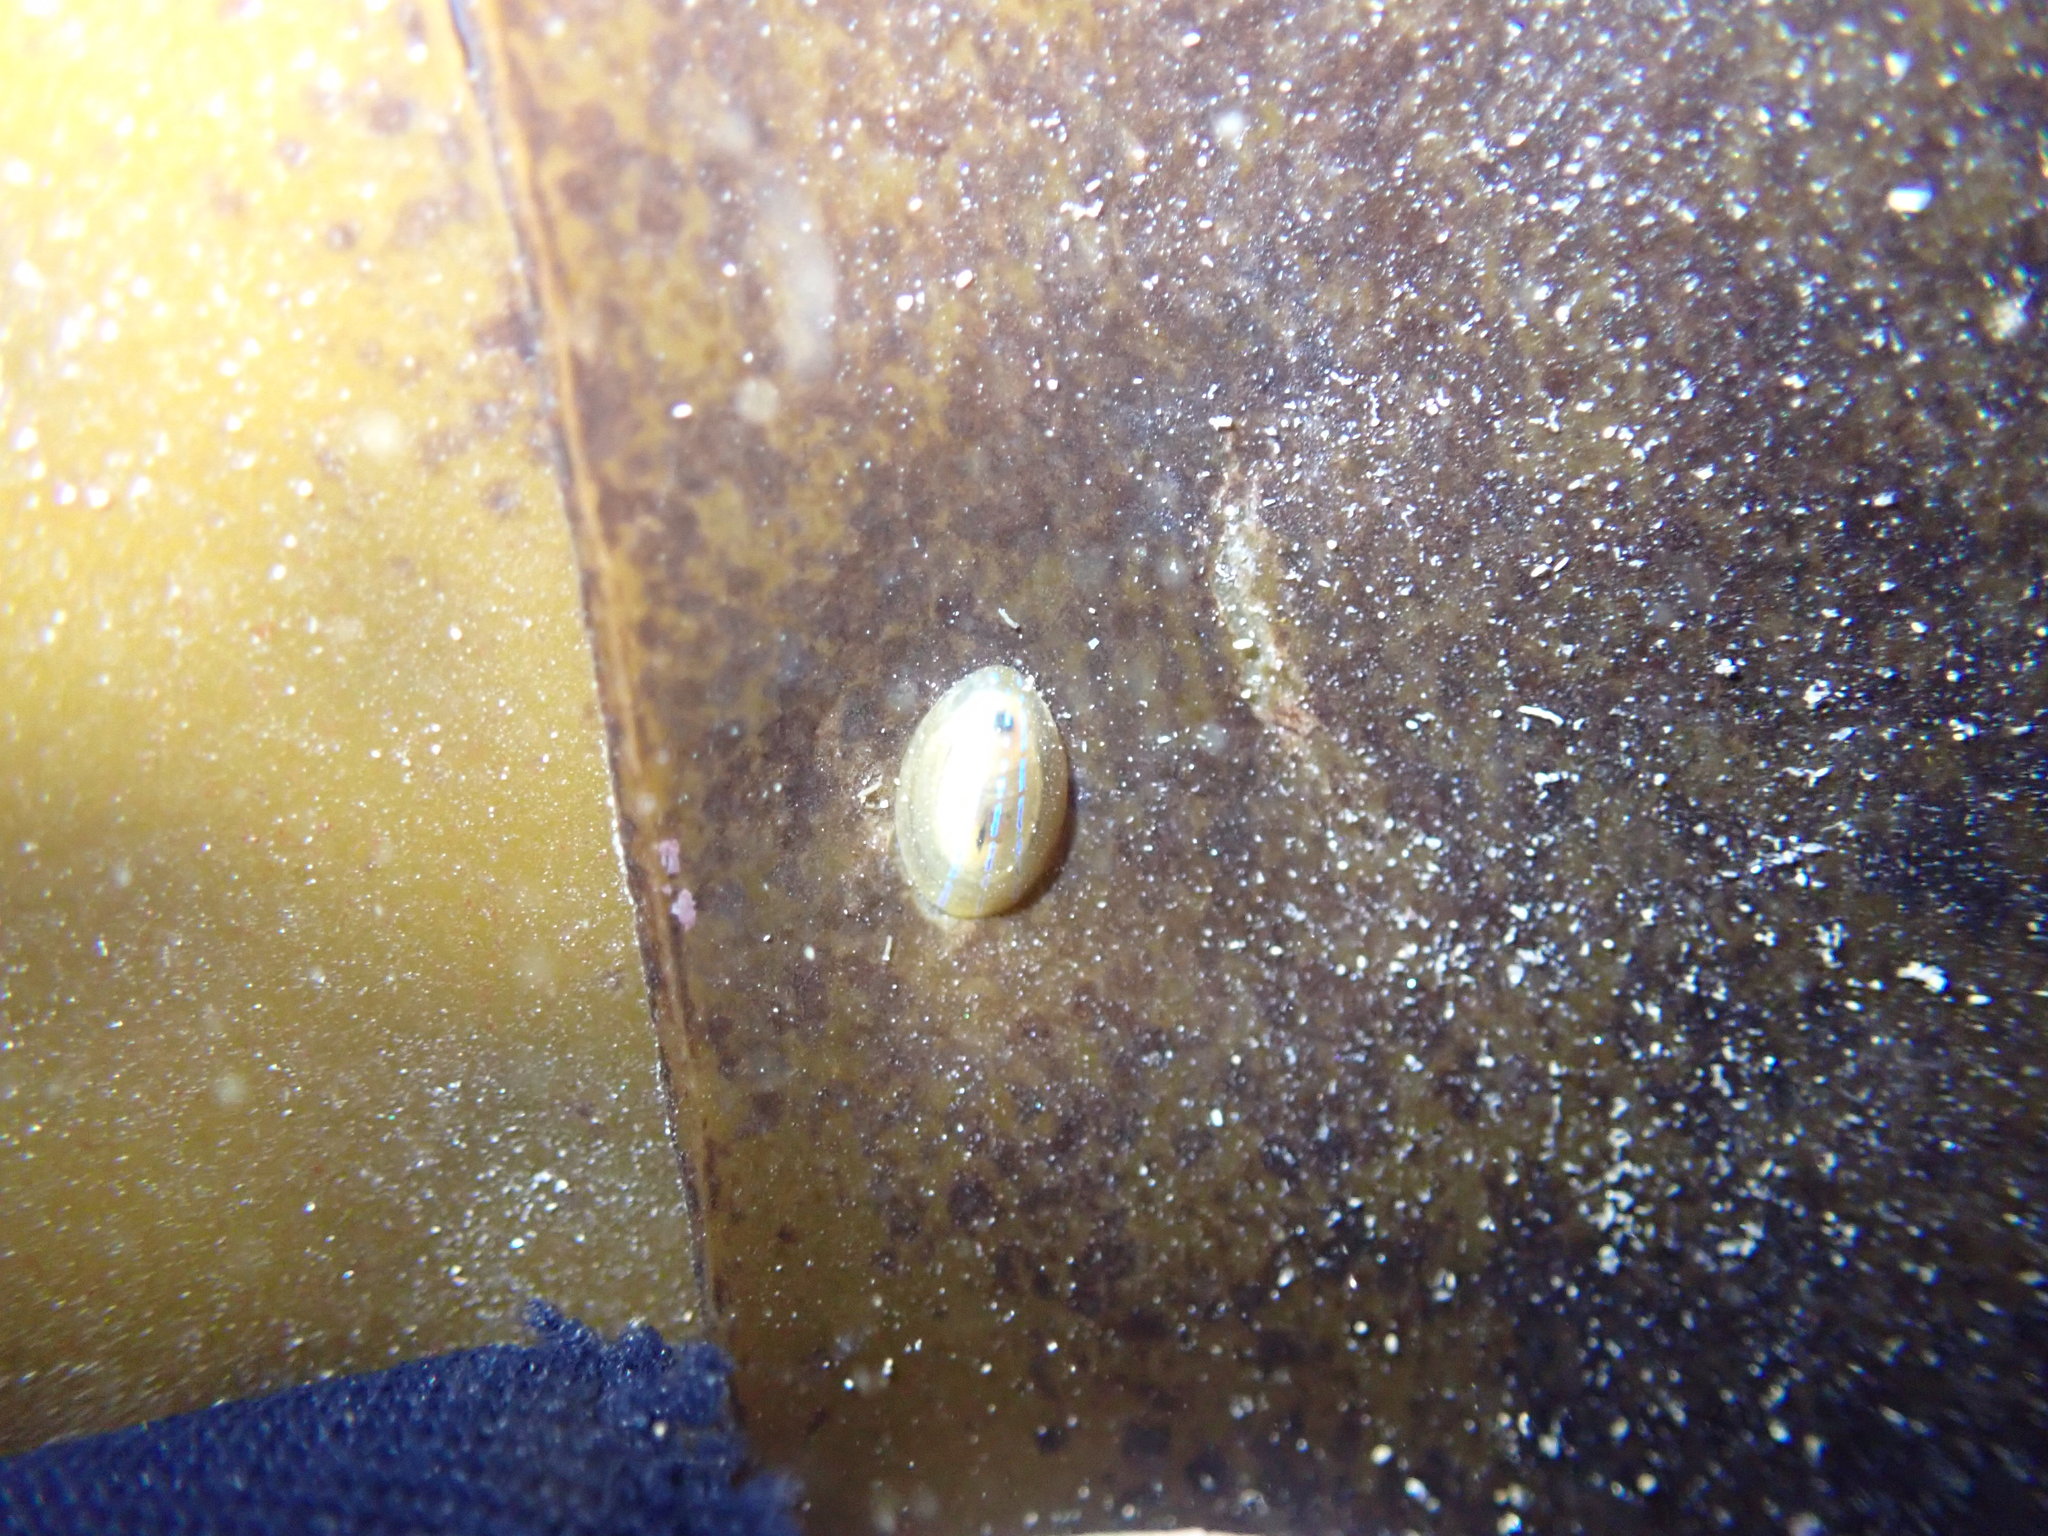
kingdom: Animalia
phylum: Mollusca
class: Gastropoda
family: Patellidae
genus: Patella
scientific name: Patella pellucida
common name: Blue-rayed limpet
